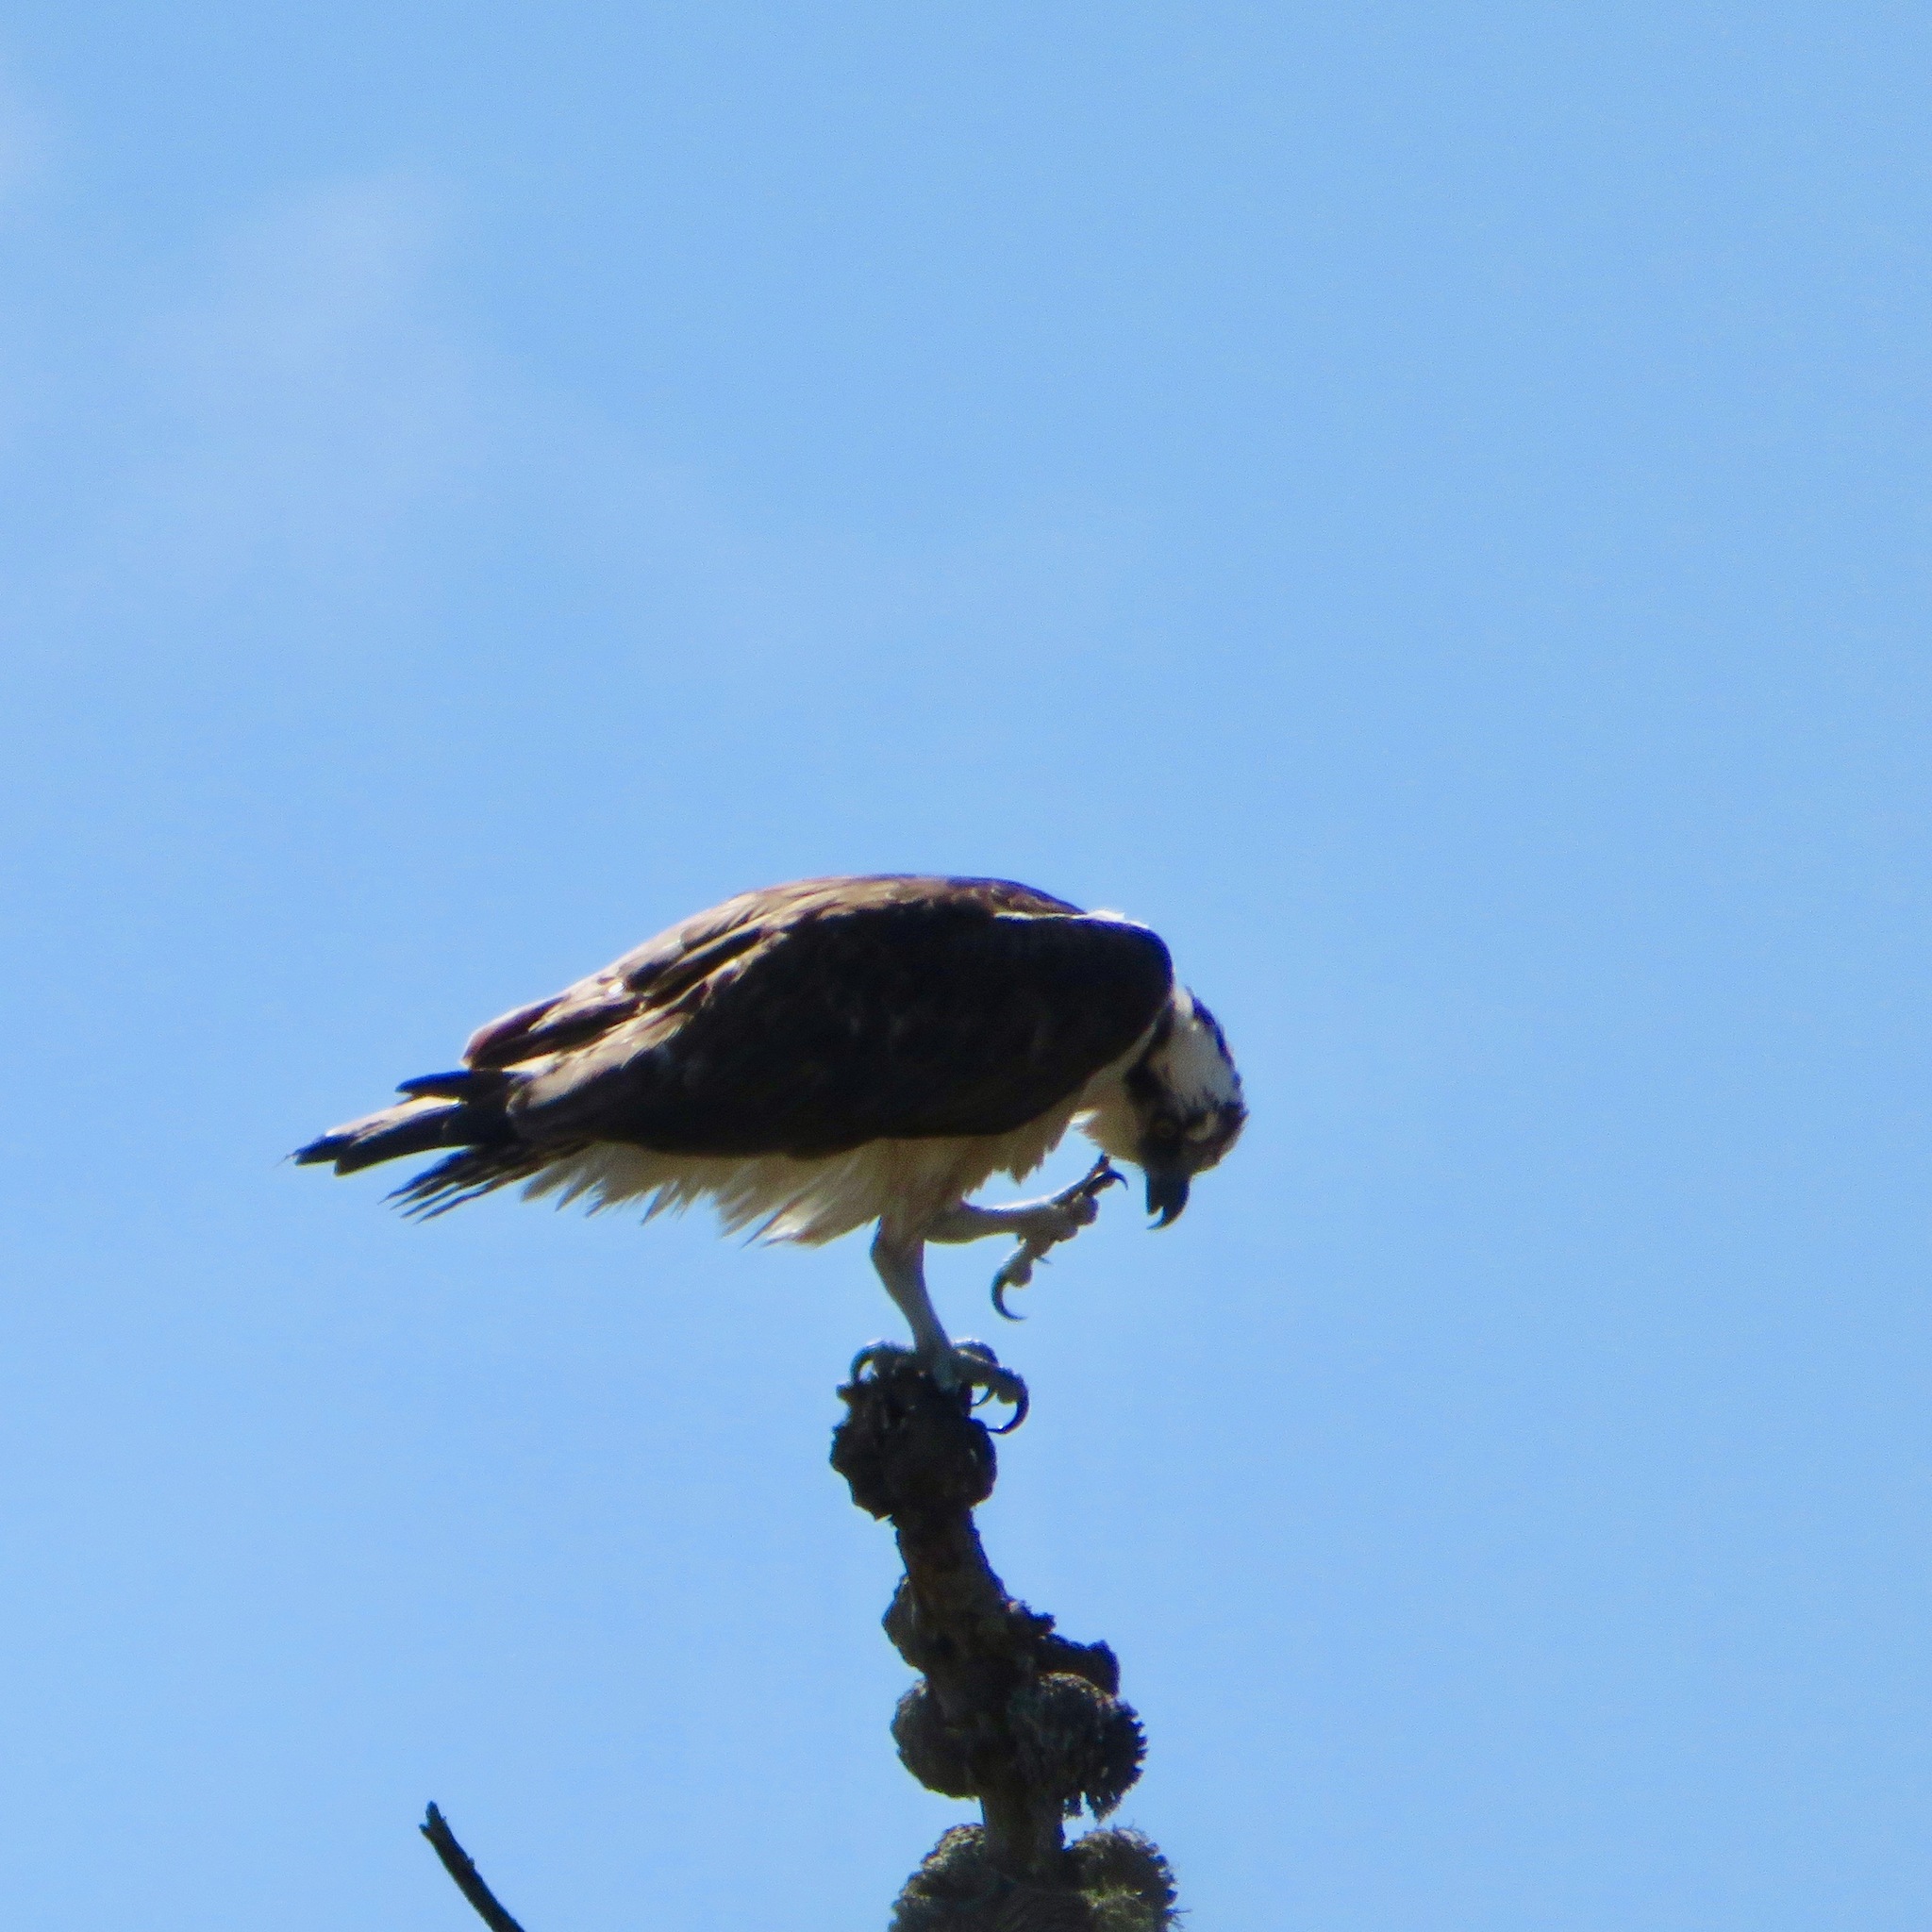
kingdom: Animalia
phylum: Chordata
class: Aves
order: Accipitriformes
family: Pandionidae
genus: Pandion
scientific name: Pandion haliaetus
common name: Osprey
